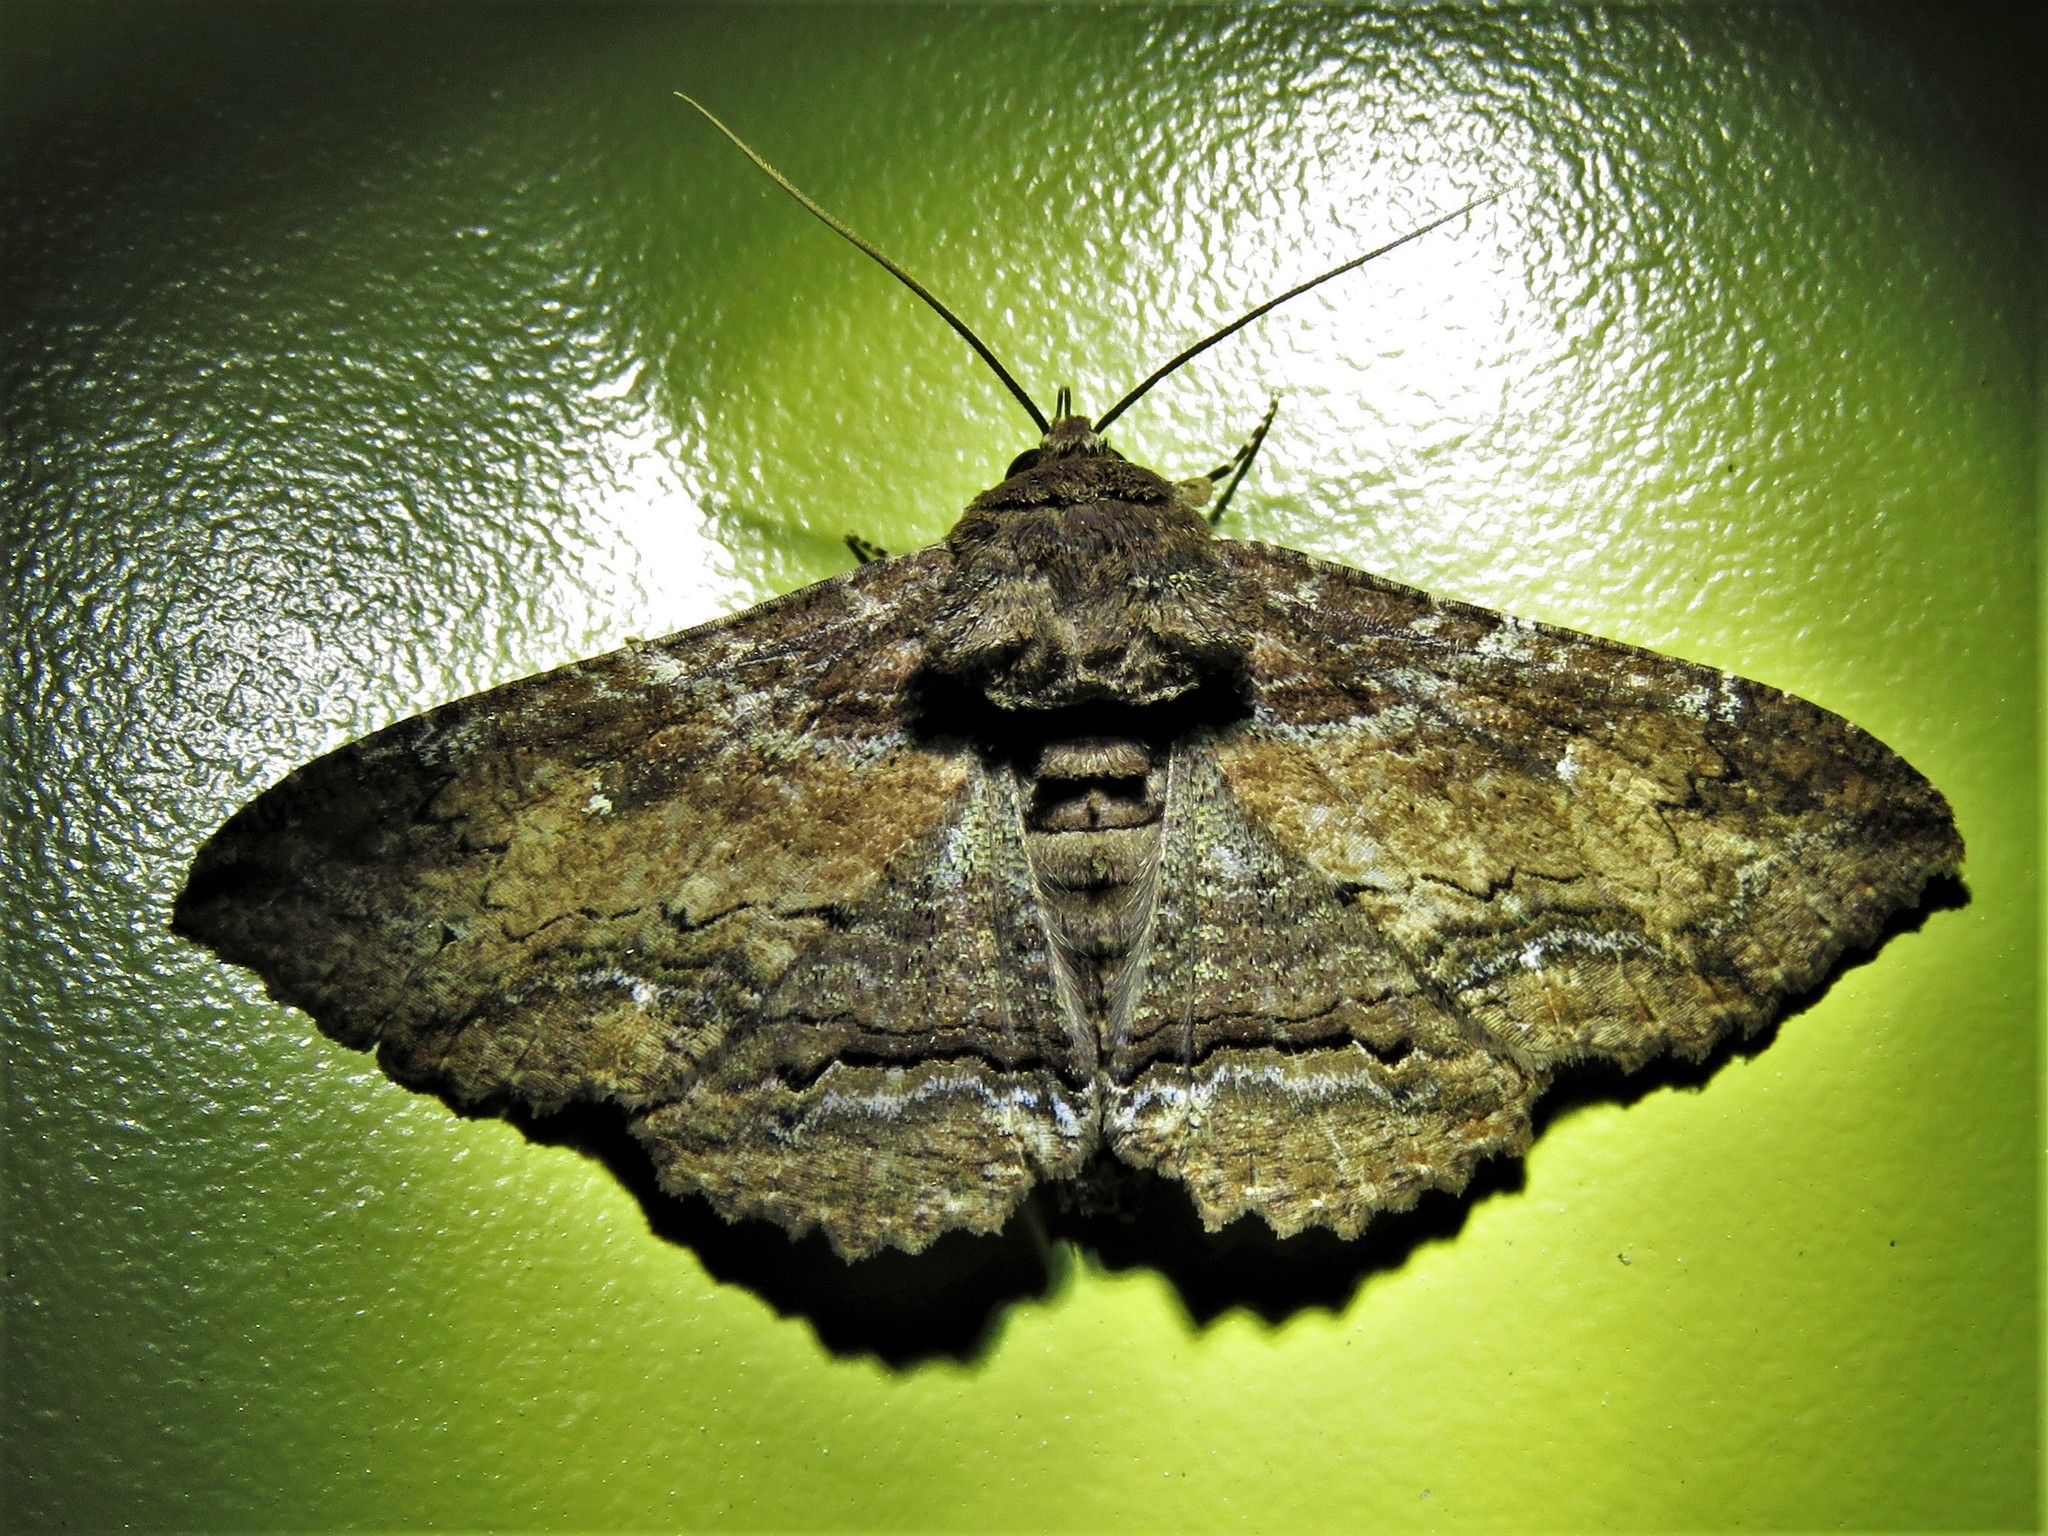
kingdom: Animalia
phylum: Arthropoda
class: Insecta
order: Lepidoptera
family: Erebidae
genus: Zale
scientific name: Zale lunata
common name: Lunate zale moth
